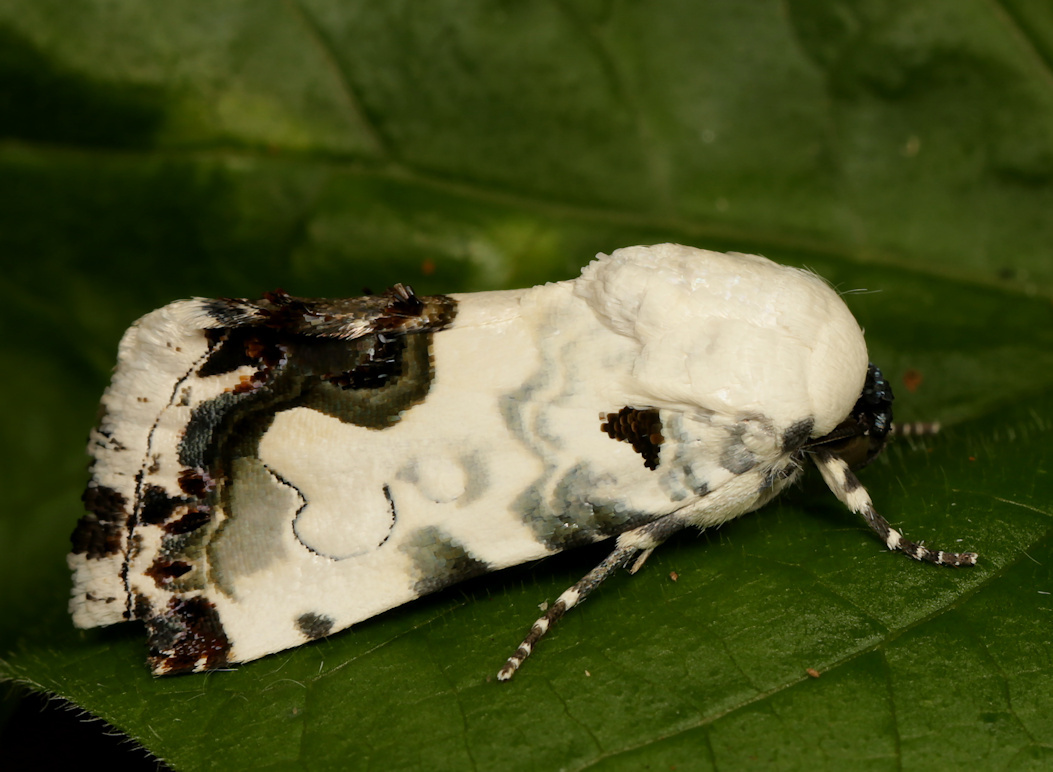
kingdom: Animalia
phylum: Arthropoda
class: Insecta
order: Lepidoptera
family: Noctuidae
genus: Acontia
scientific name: Acontia aurelia
